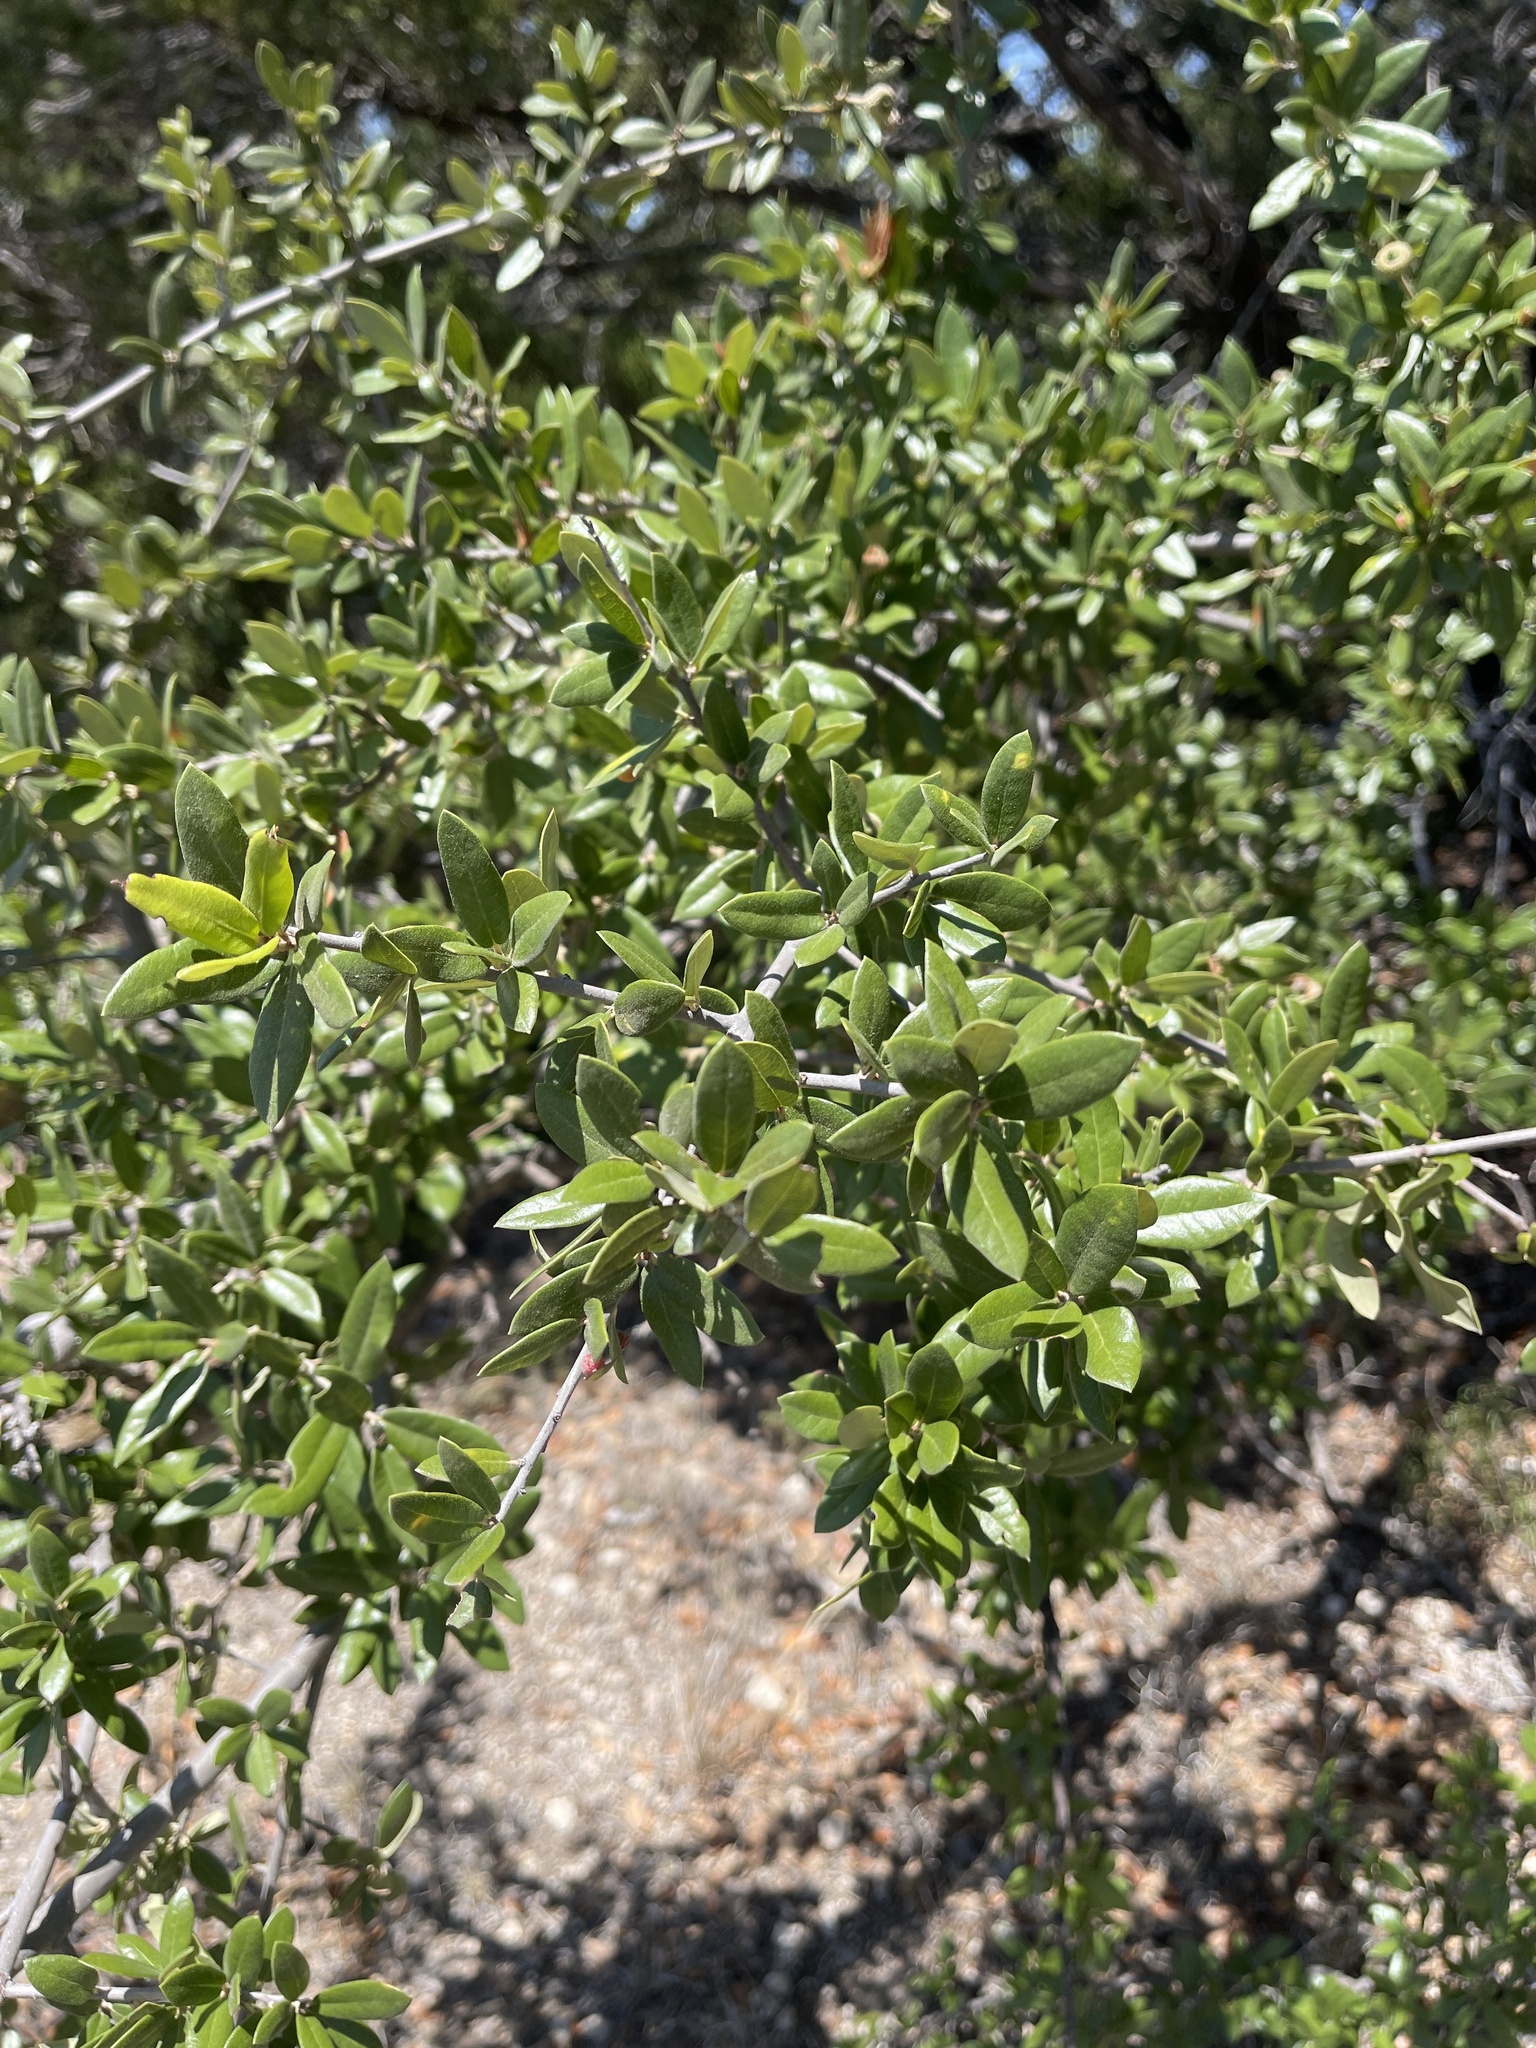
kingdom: Plantae
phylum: Tracheophyta
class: Magnoliopsida
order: Fagales
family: Fagaceae
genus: Quercus
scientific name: Quercus fusiformis
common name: Texas live oak
